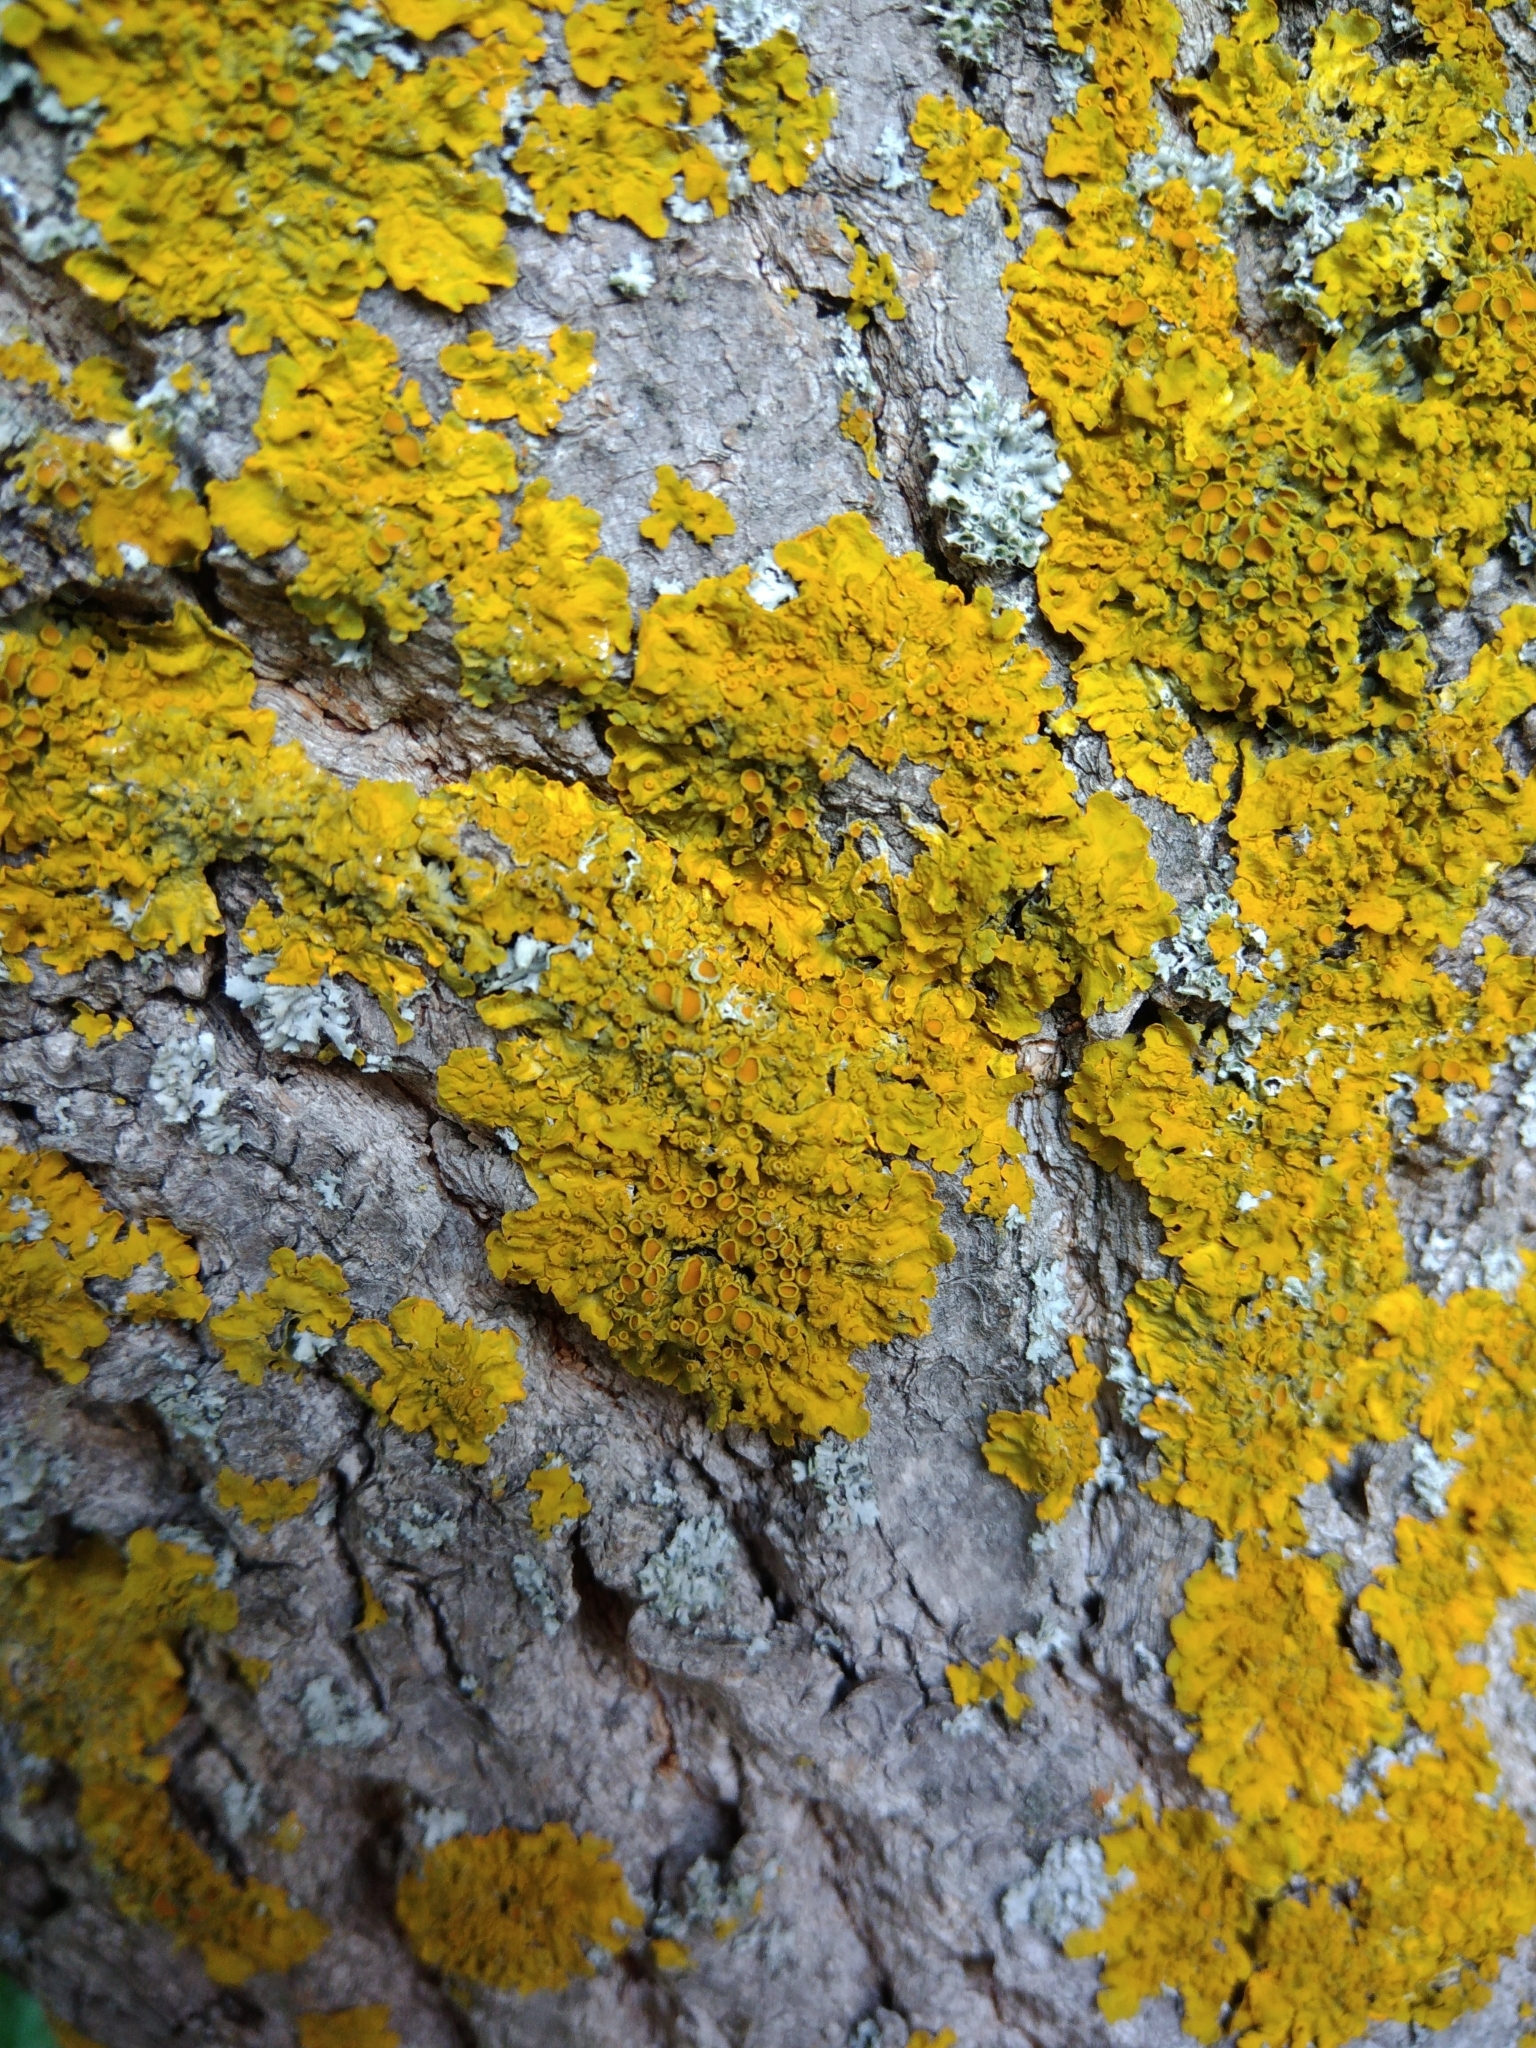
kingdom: Fungi
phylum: Ascomycota
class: Lecanoromycetes
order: Teloschistales
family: Teloschistaceae
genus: Xanthoria
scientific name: Xanthoria parietina
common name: Common orange lichen
